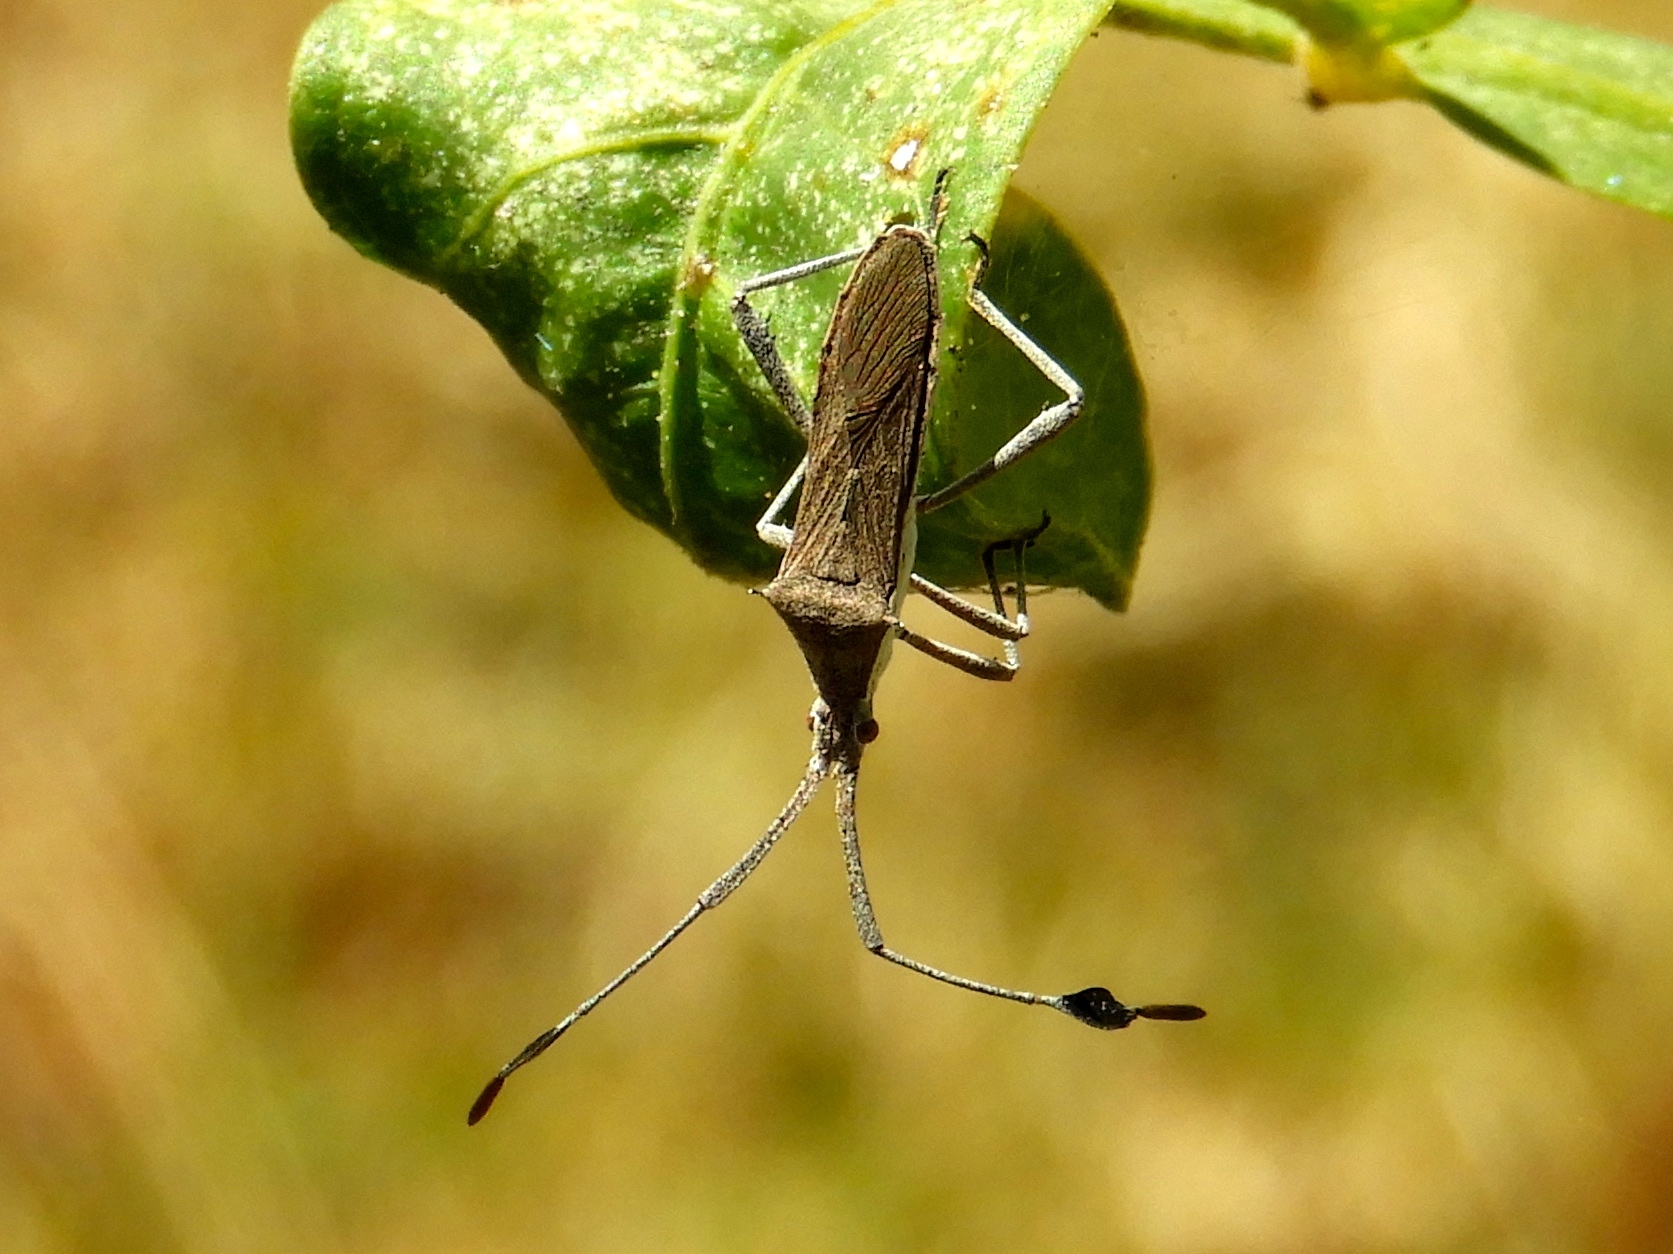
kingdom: Animalia
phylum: Arthropoda
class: Insecta
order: Hemiptera
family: Coreidae
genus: Chariesterus
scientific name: Chariesterus
